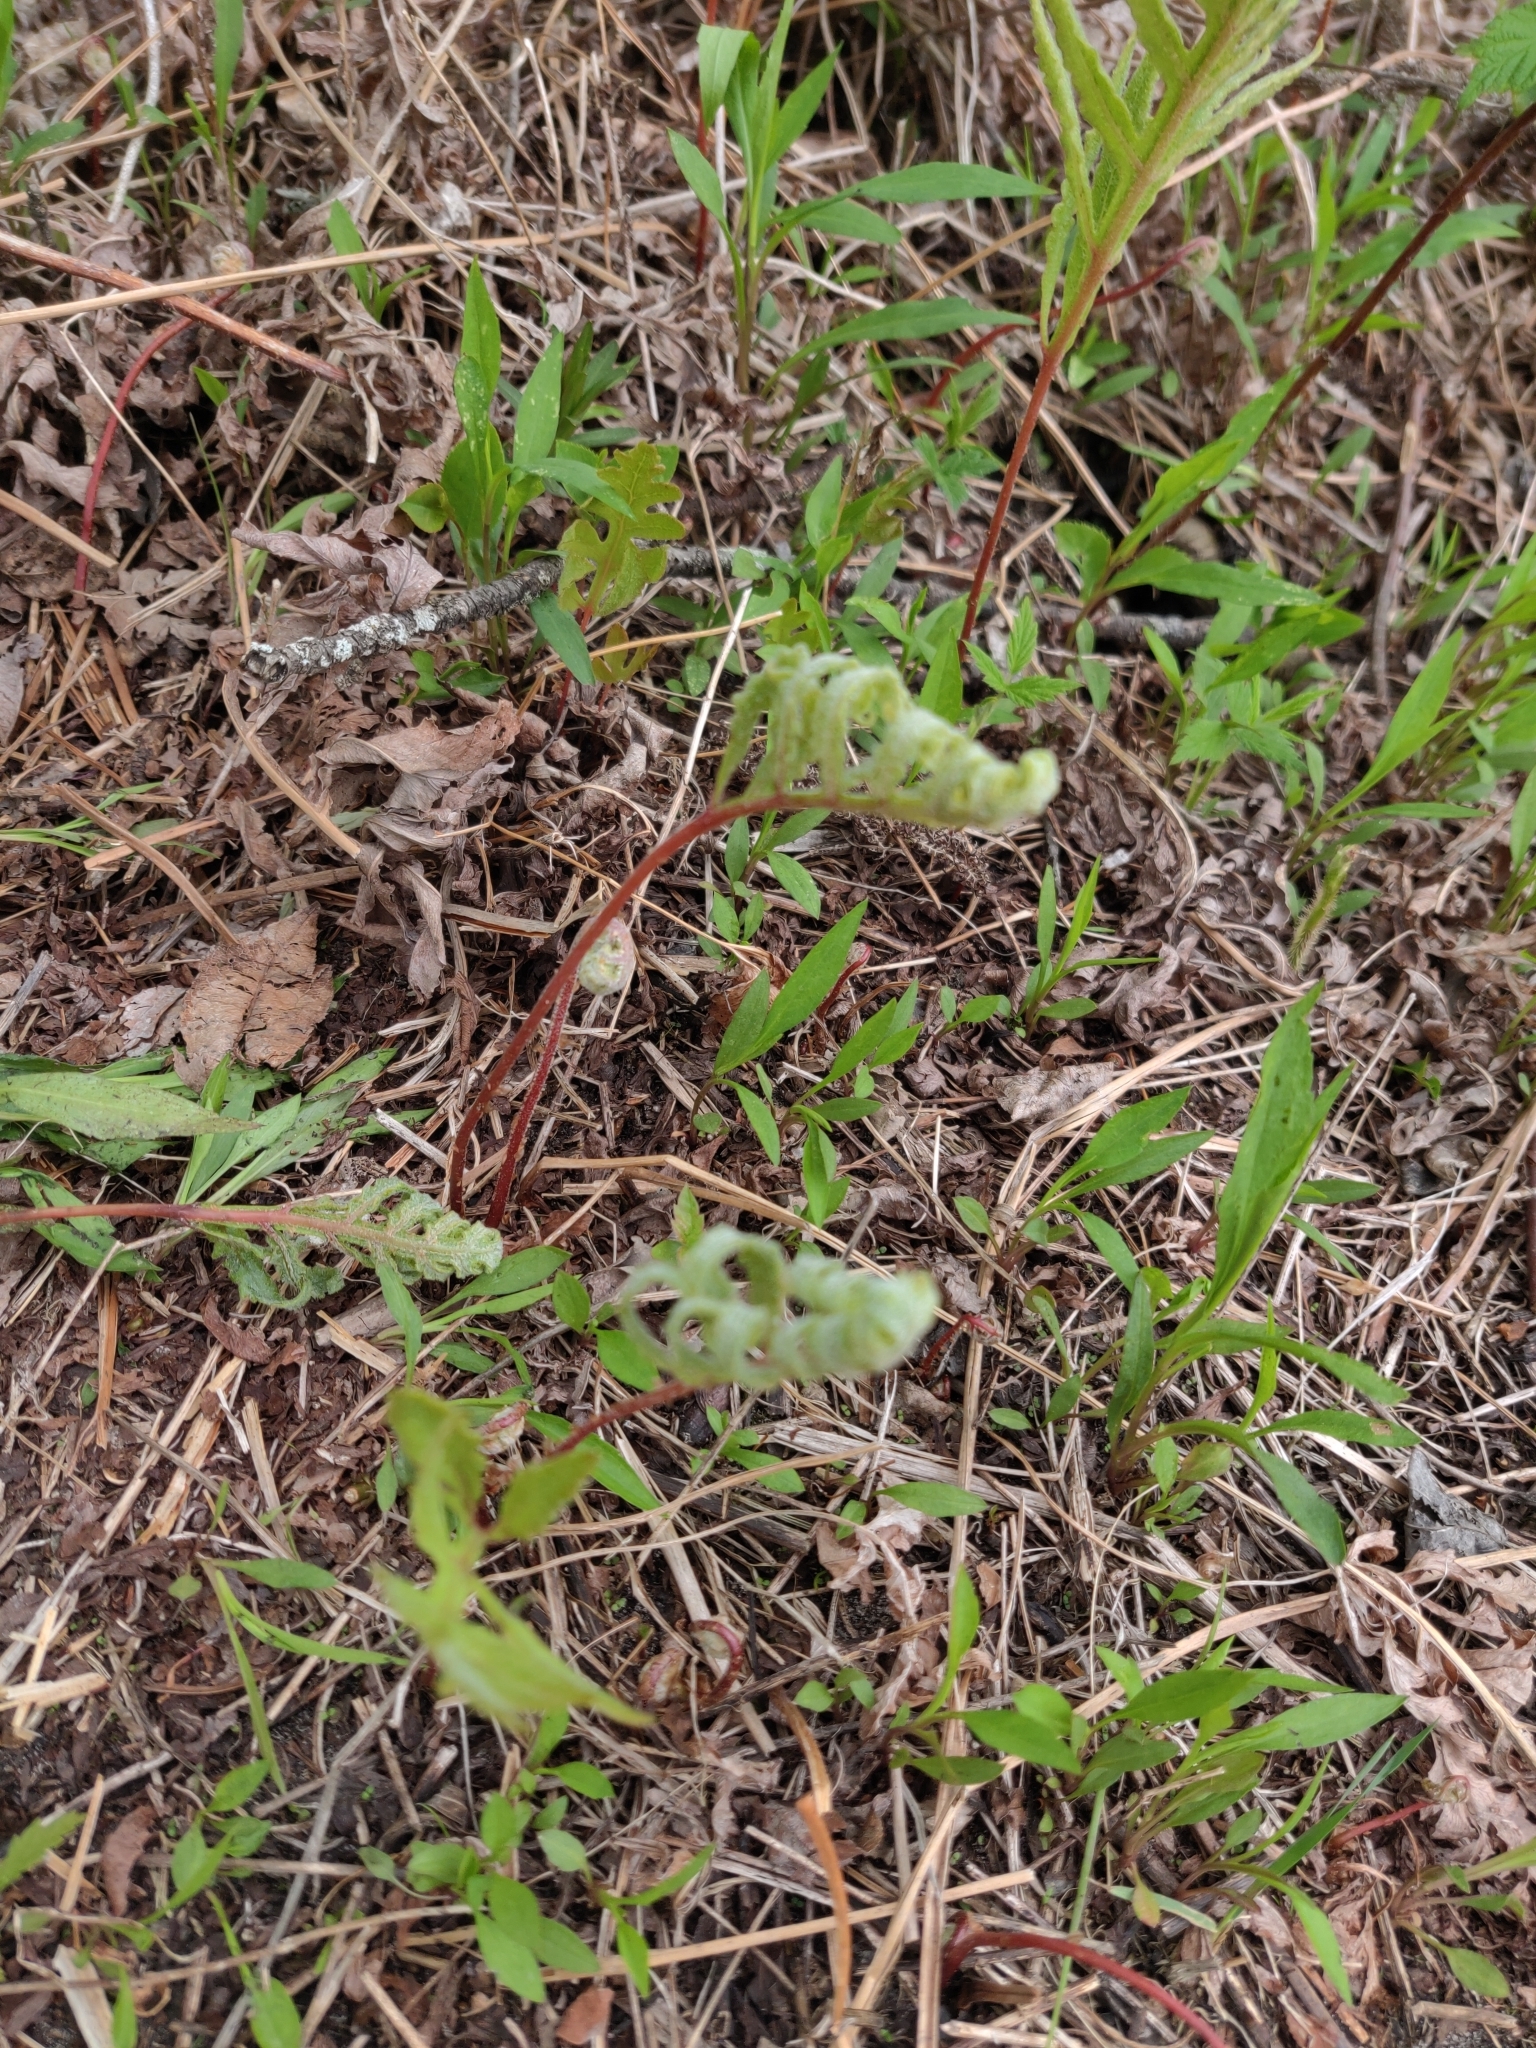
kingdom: Plantae
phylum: Tracheophyta
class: Polypodiopsida
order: Polypodiales
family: Onocleaceae
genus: Onoclea
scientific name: Onoclea sensibilis
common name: Sensitive fern
